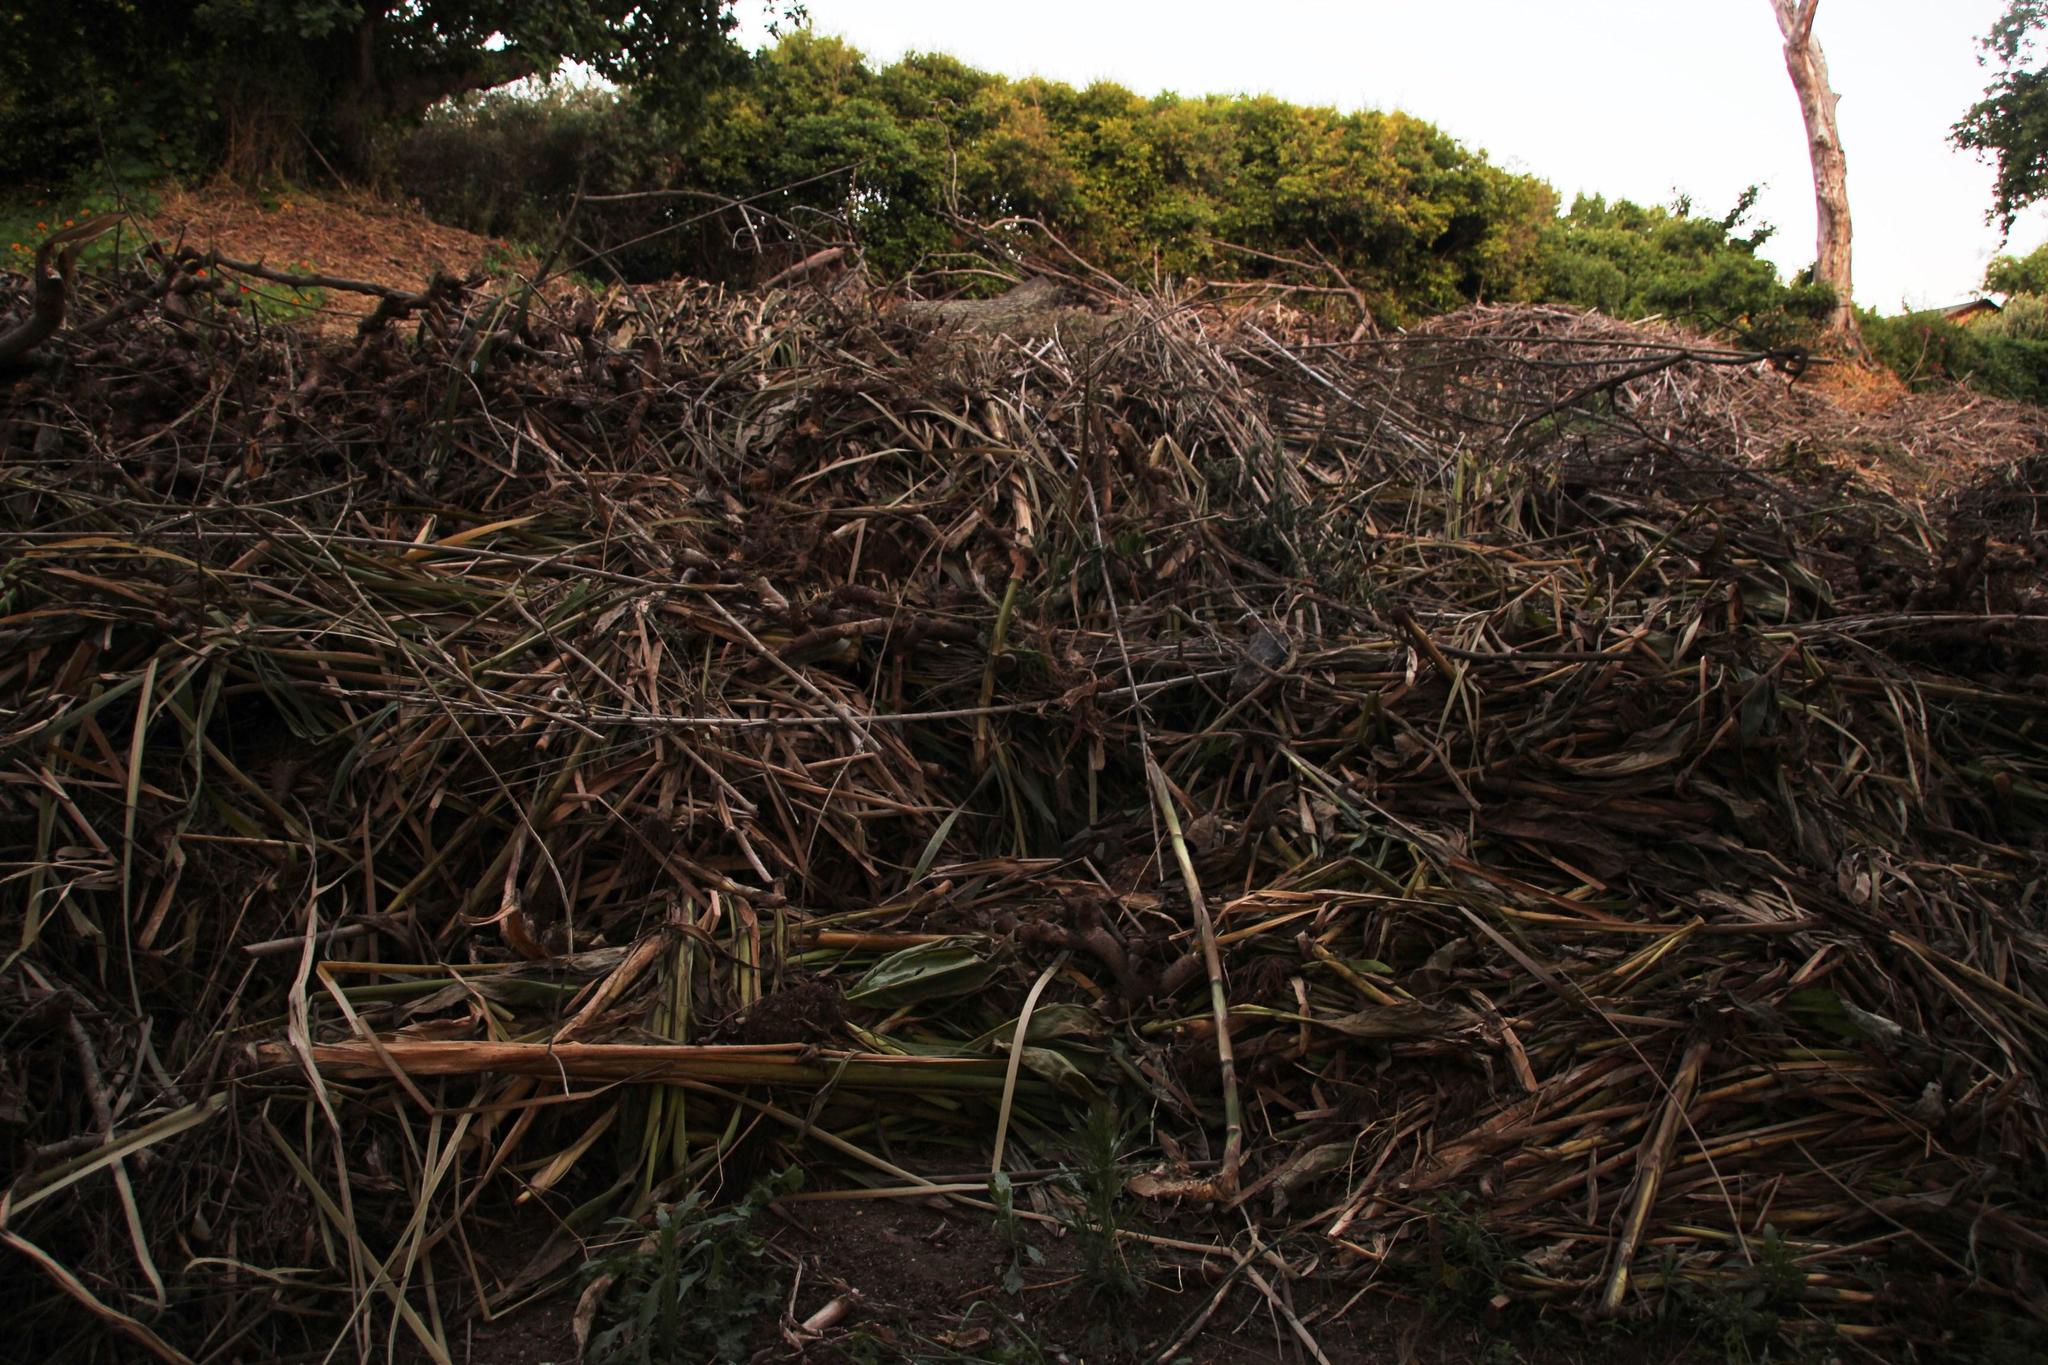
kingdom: Plantae
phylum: Tracheophyta
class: Liliopsida
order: Poales
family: Typhaceae
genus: Typha
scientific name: Typha capensis
